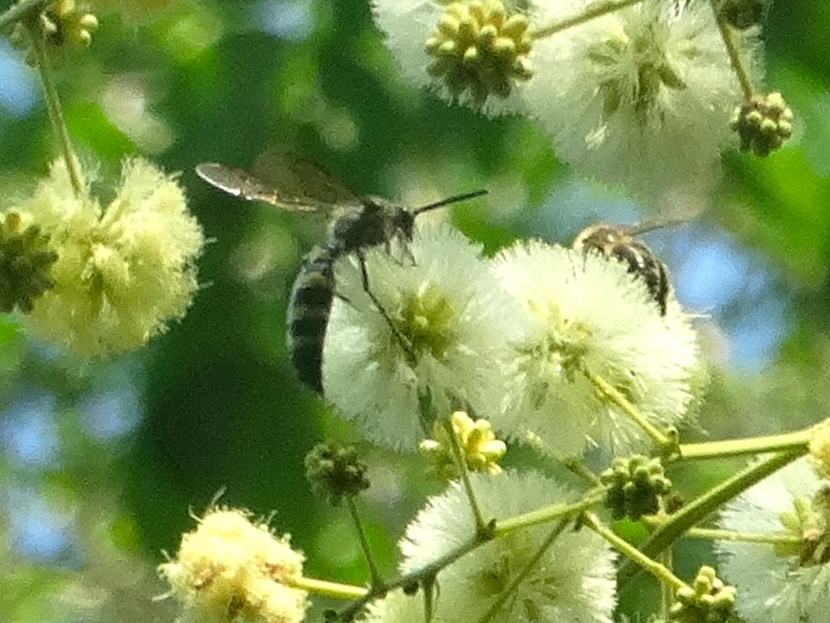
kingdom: Animalia
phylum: Arthropoda
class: Insecta
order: Hymenoptera
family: Scoliidae
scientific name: Scoliidae
